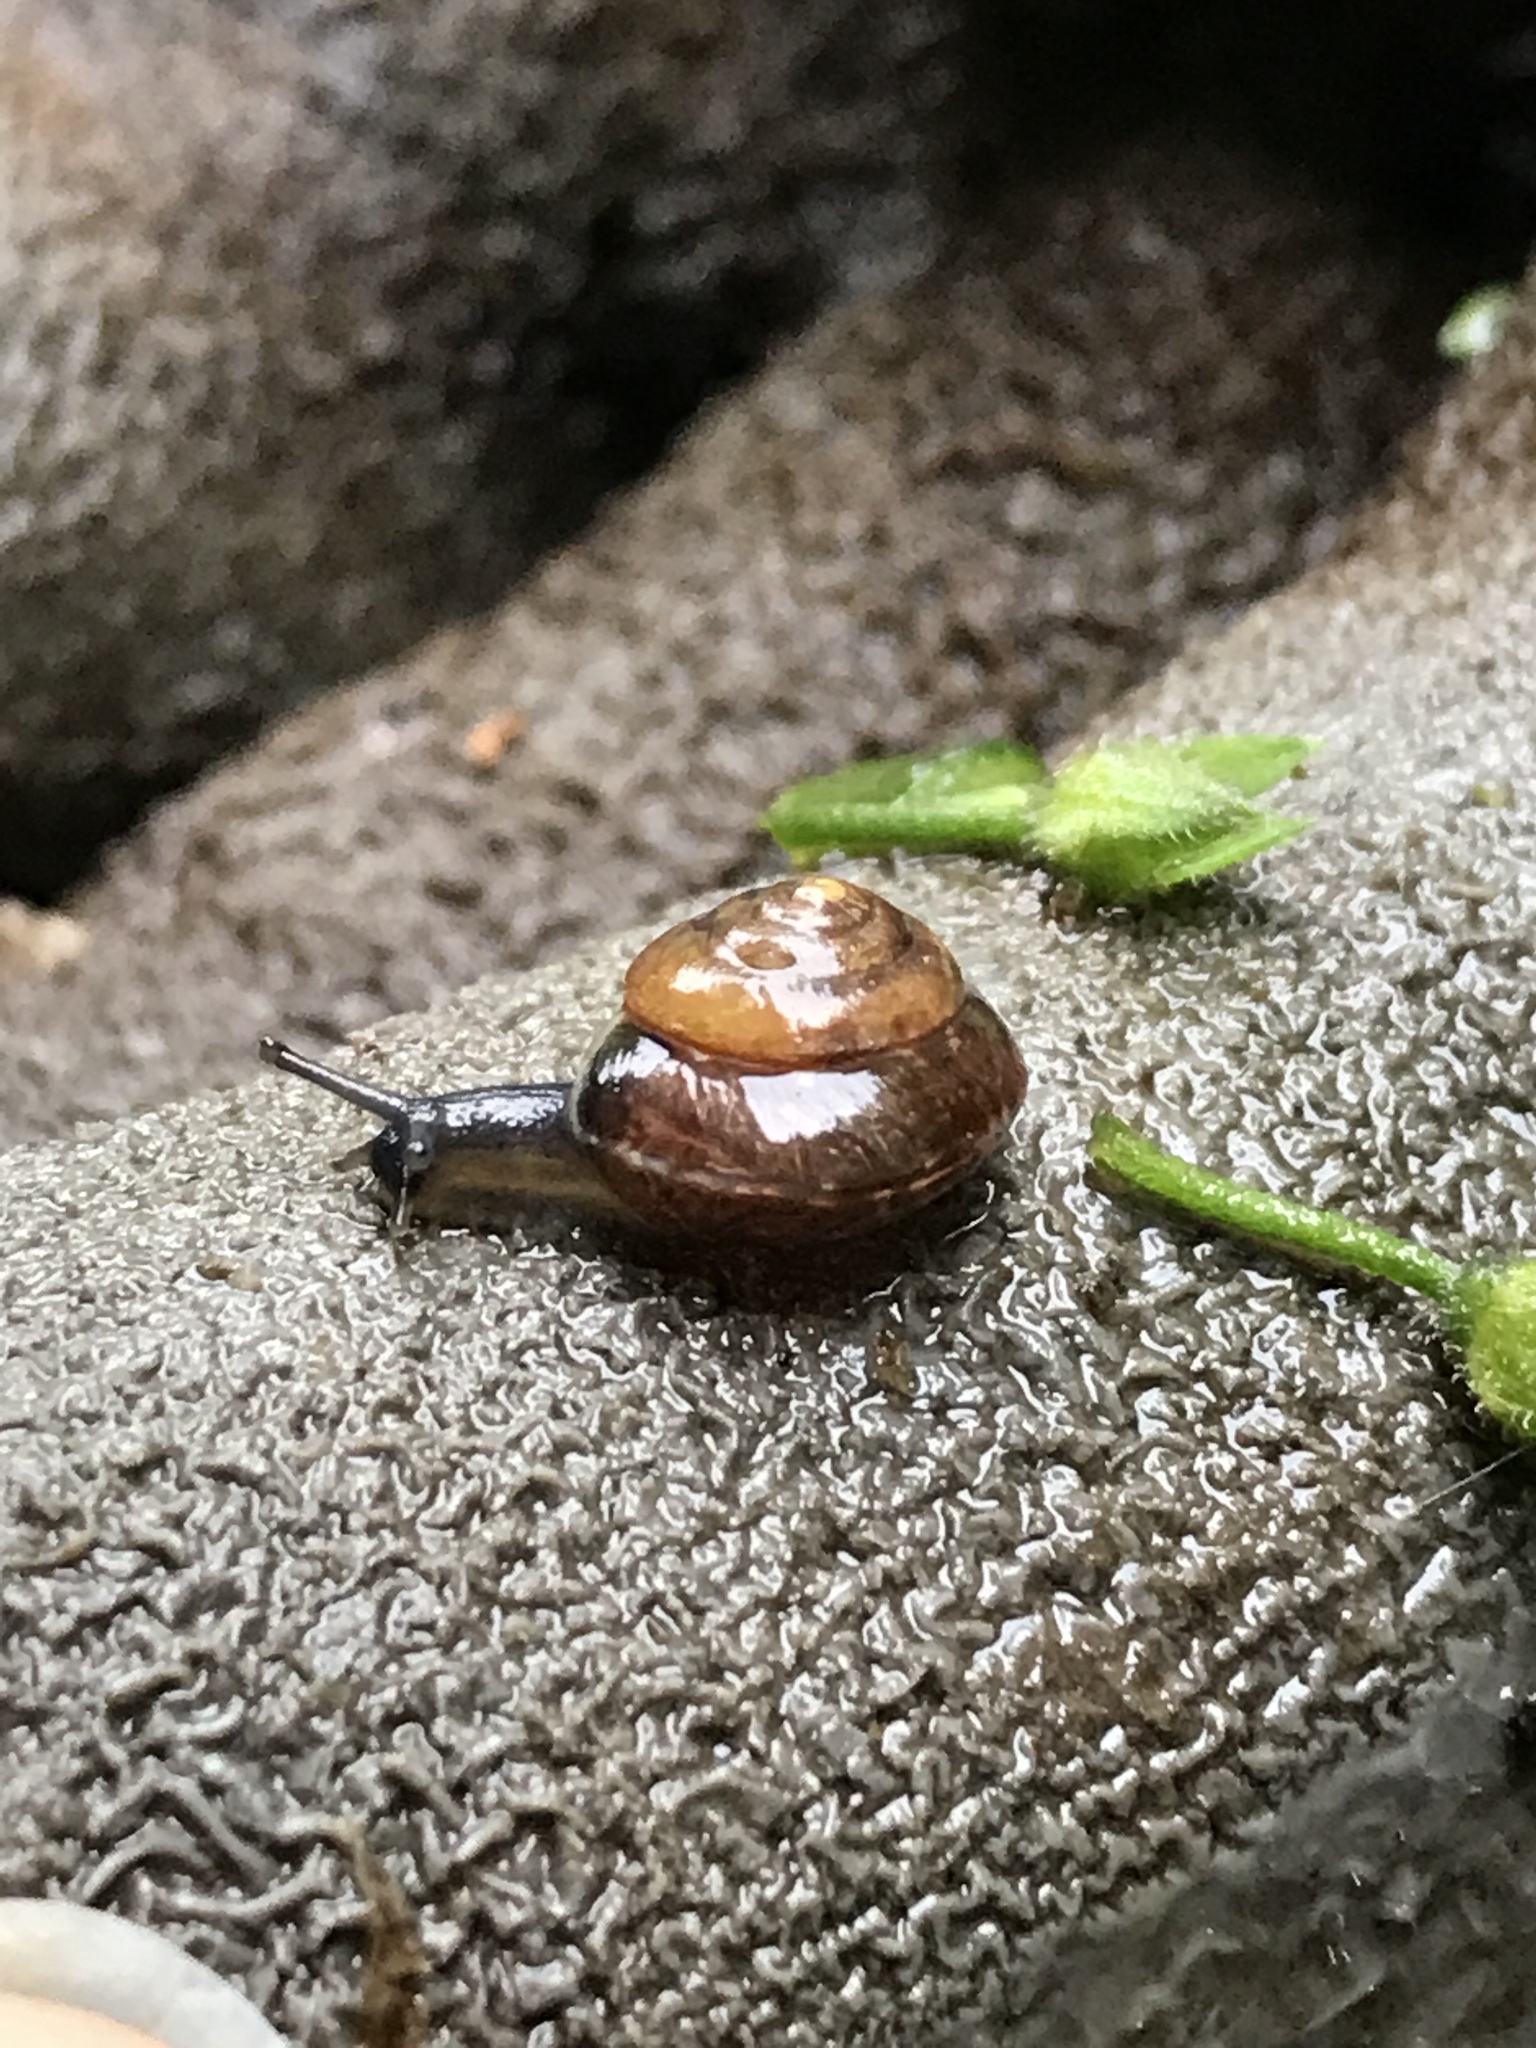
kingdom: Animalia
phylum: Mollusca
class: Gastropoda
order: Stylommatophora
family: Hygromiidae
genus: Hygromia
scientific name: Hygromia cinctella
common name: Girdled snail
